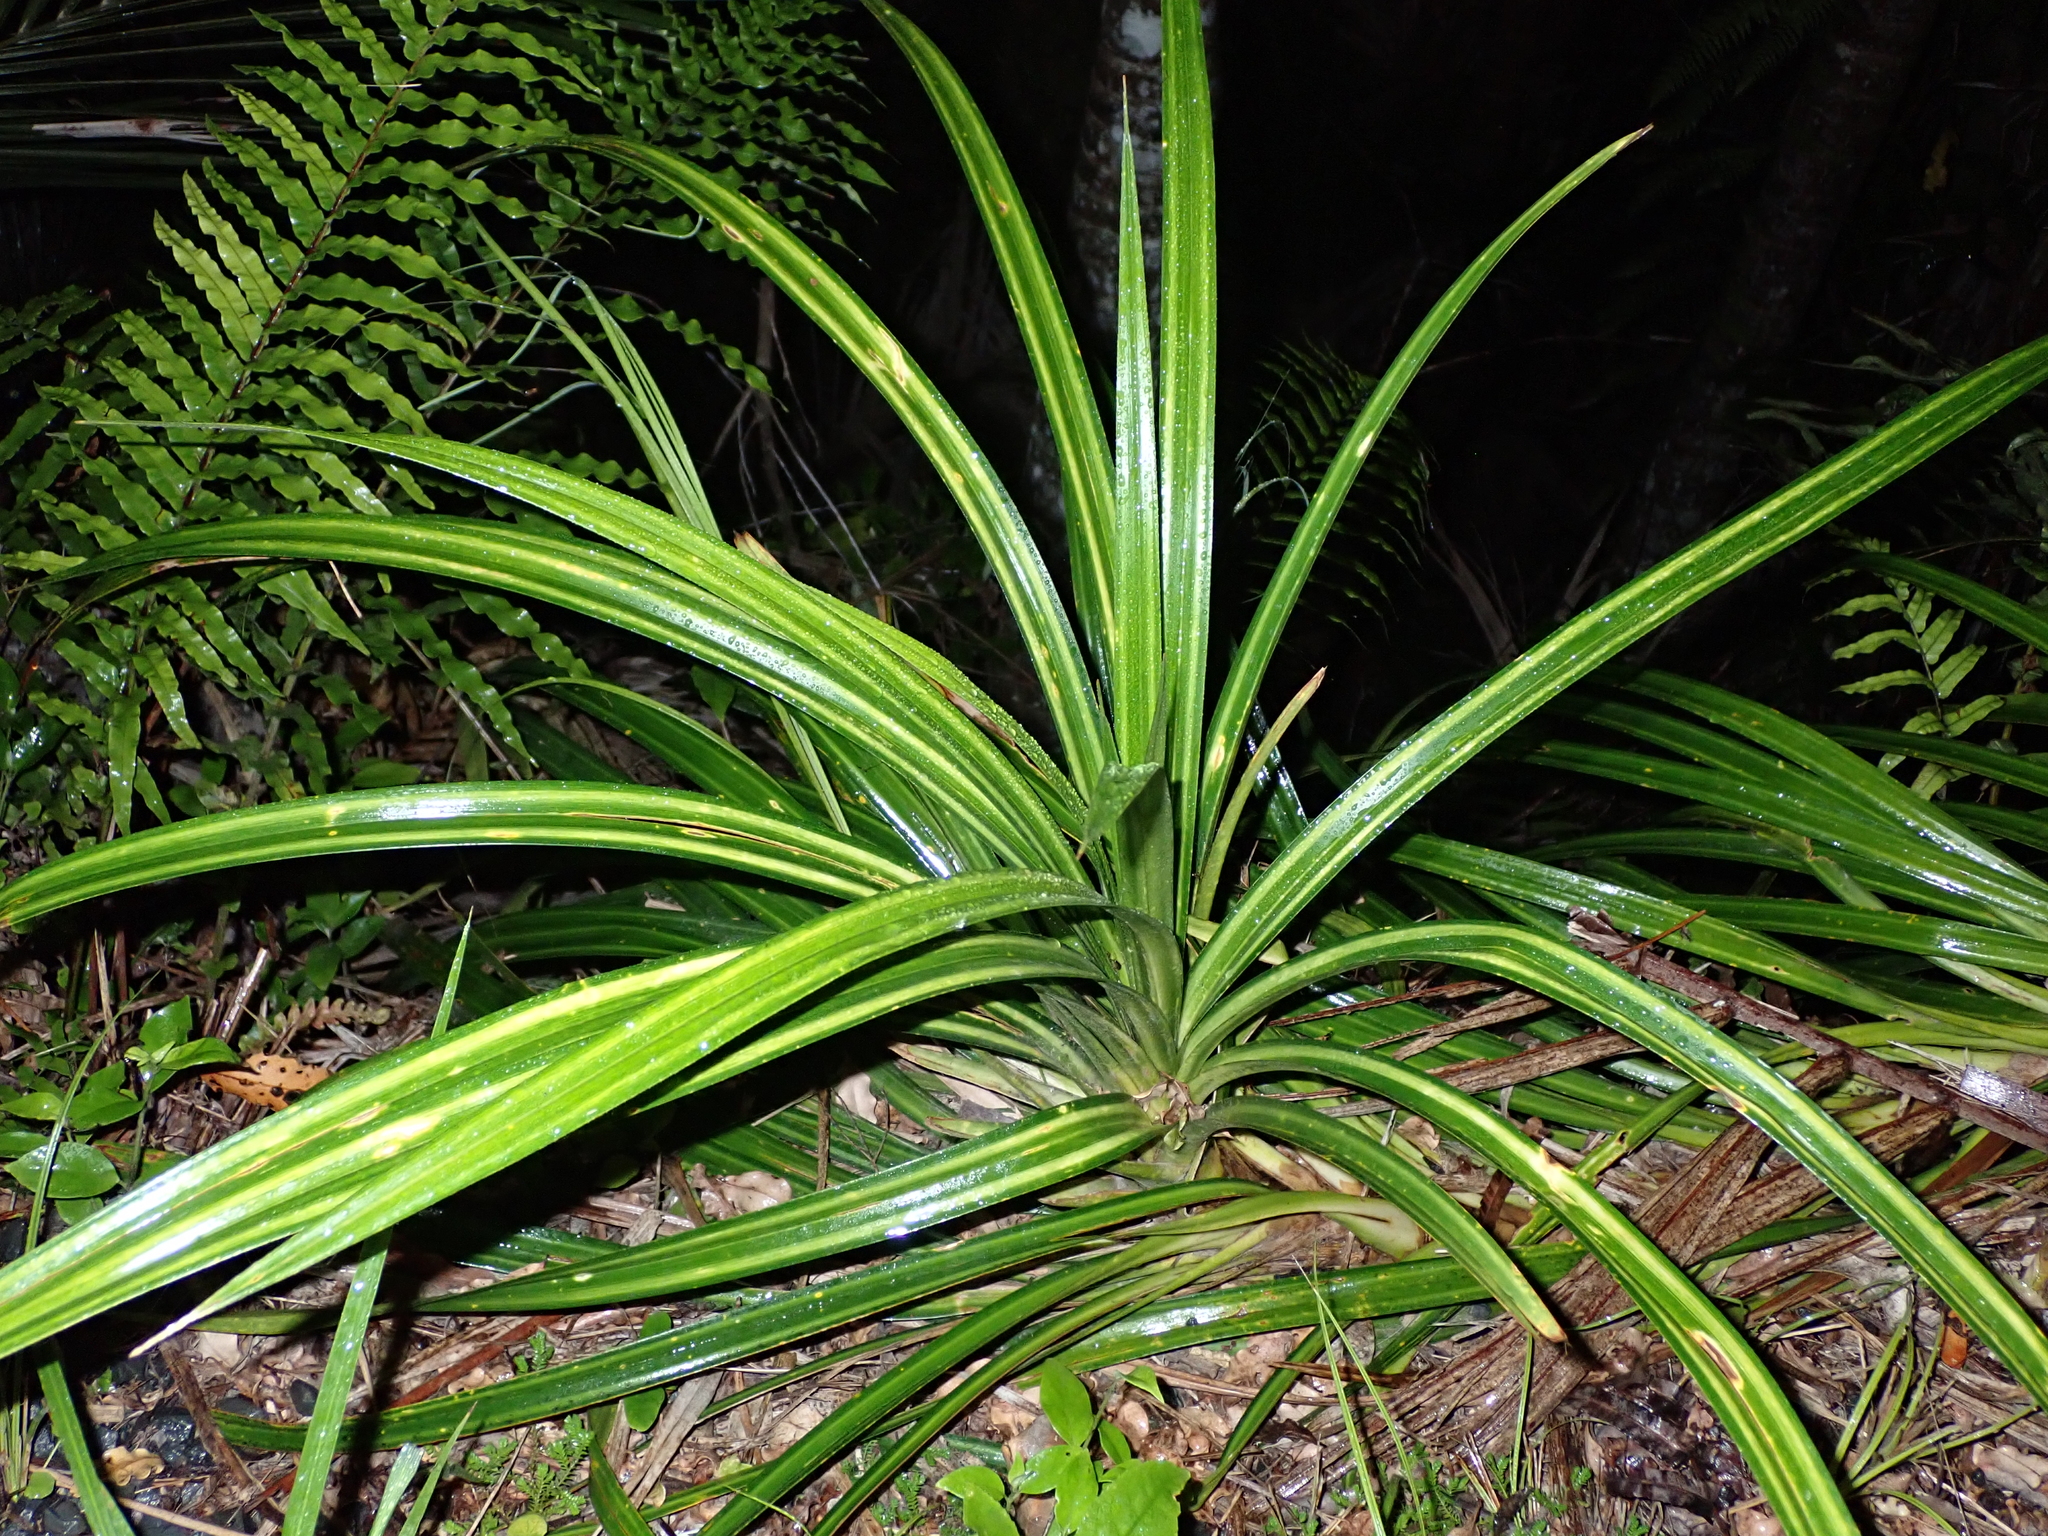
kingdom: Plantae
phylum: Tracheophyta
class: Liliopsida
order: Pandanales
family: Pandanaceae
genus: Freycinetia
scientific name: Freycinetia banksii
